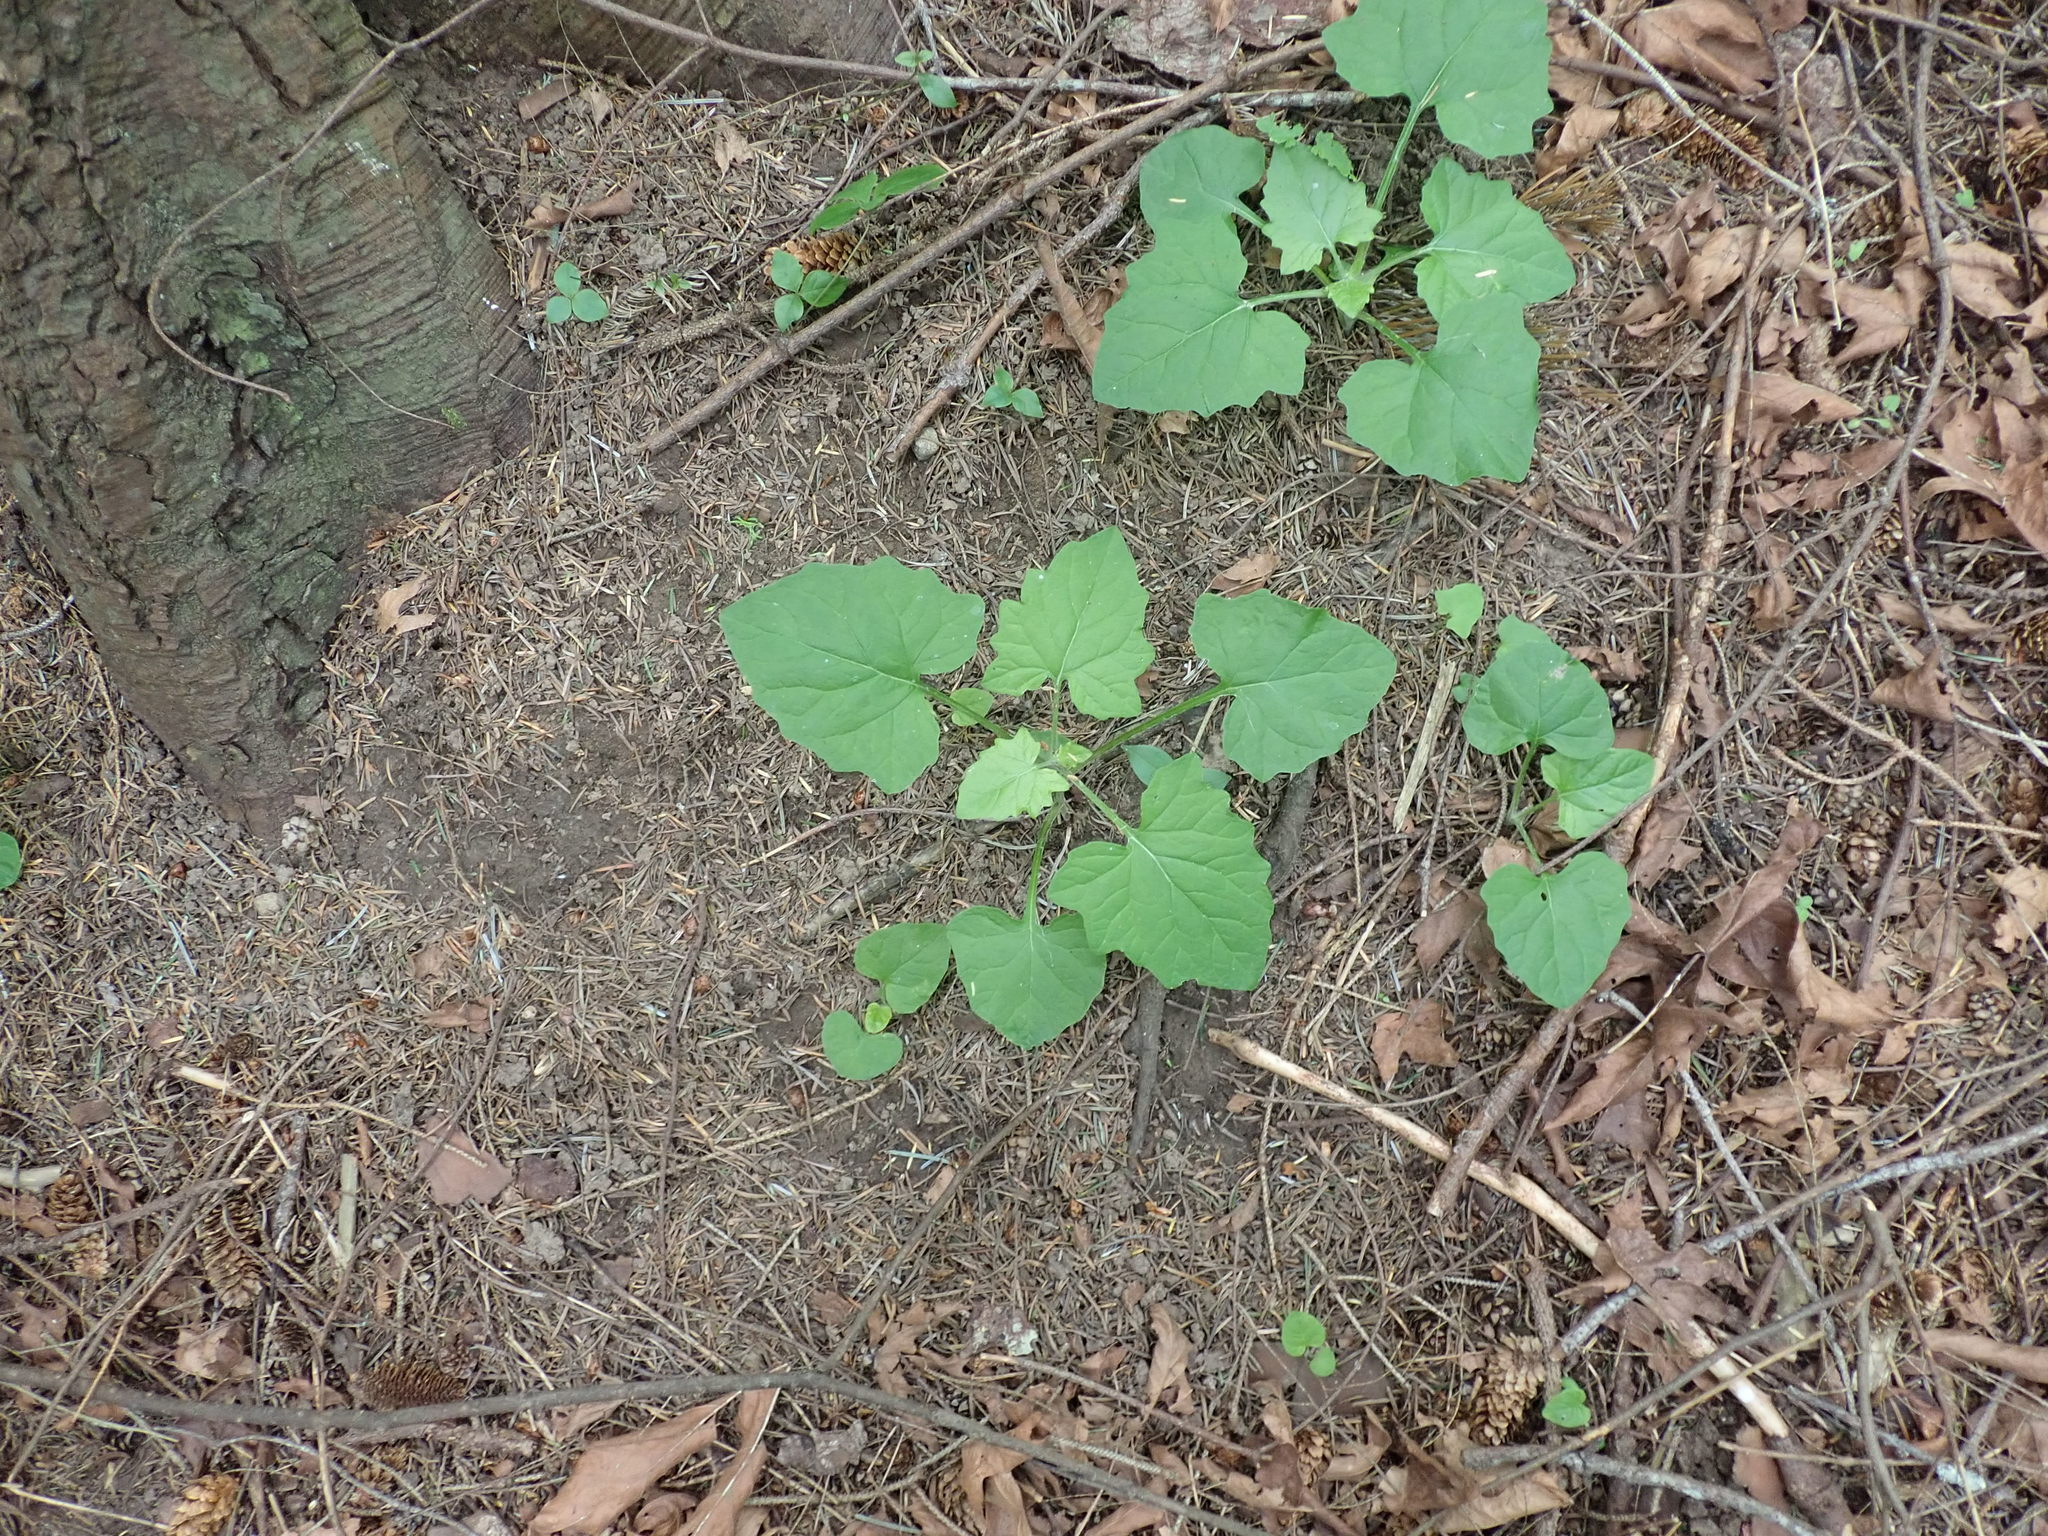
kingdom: Plantae
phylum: Tracheophyta
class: Magnoliopsida
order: Asterales
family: Asteraceae
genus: Adenocaulon
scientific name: Adenocaulon bicolor
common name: Trailplant
